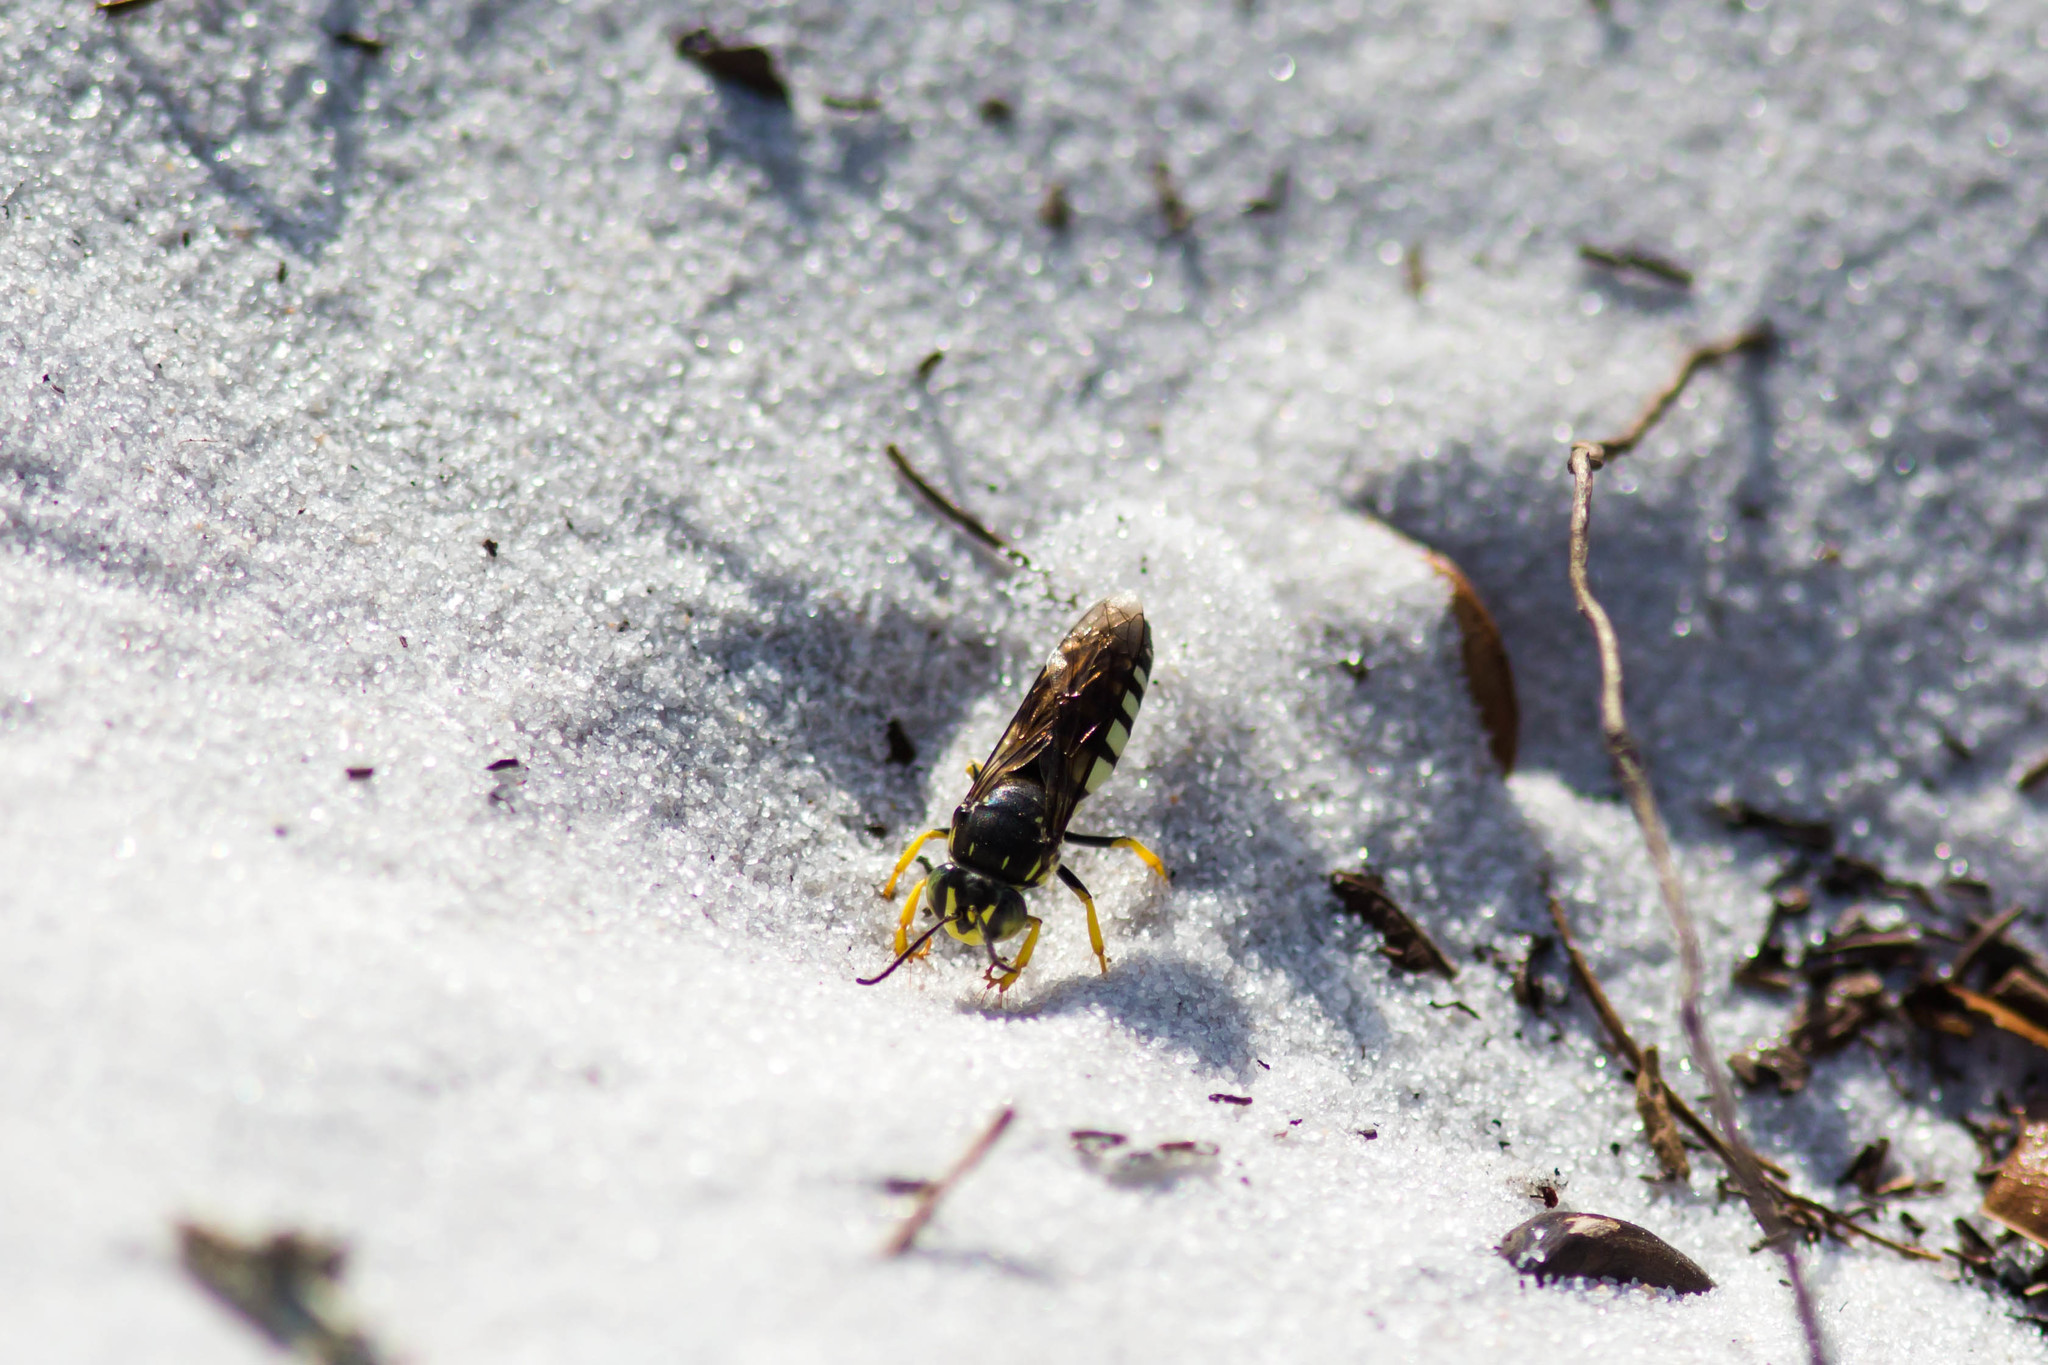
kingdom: Animalia
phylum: Arthropoda
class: Insecta
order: Hymenoptera
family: Crabronidae
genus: Bicyrtes
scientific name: Bicyrtes quadrifasciatus
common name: Four-banded stink bug hunter wasp
